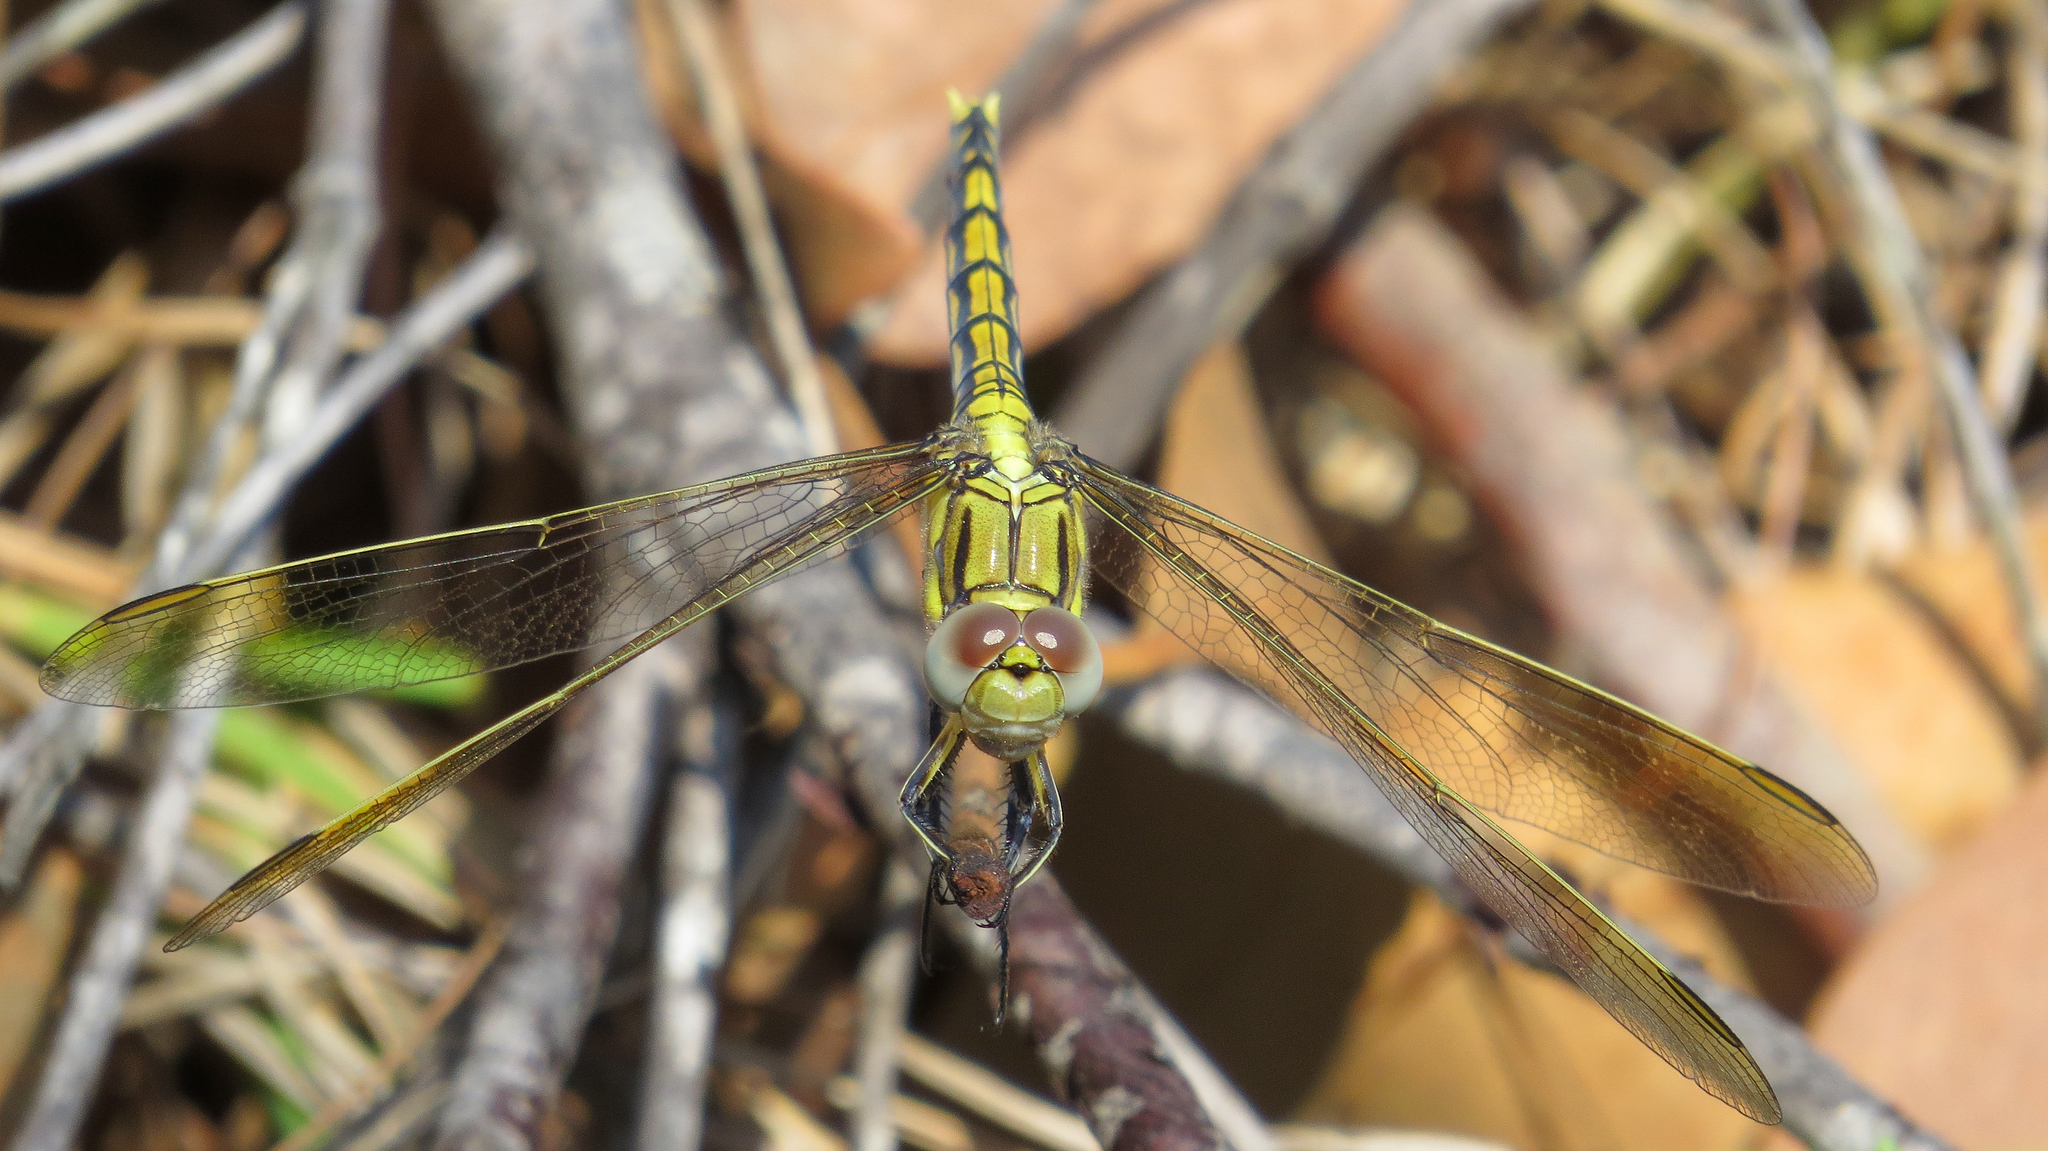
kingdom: Animalia
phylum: Arthropoda
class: Insecta
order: Odonata
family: Libellulidae
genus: Orthetrum
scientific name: Orthetrum caledonicum
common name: Blue skimmer
